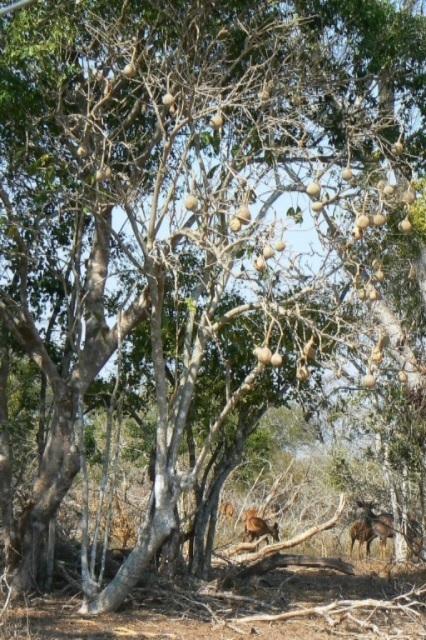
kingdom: Plantae
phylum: Tracheophyta
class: Magnoliopsida
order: Brassicales
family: Capparaceae
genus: Cladostemon
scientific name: Cladostemon kirkii
